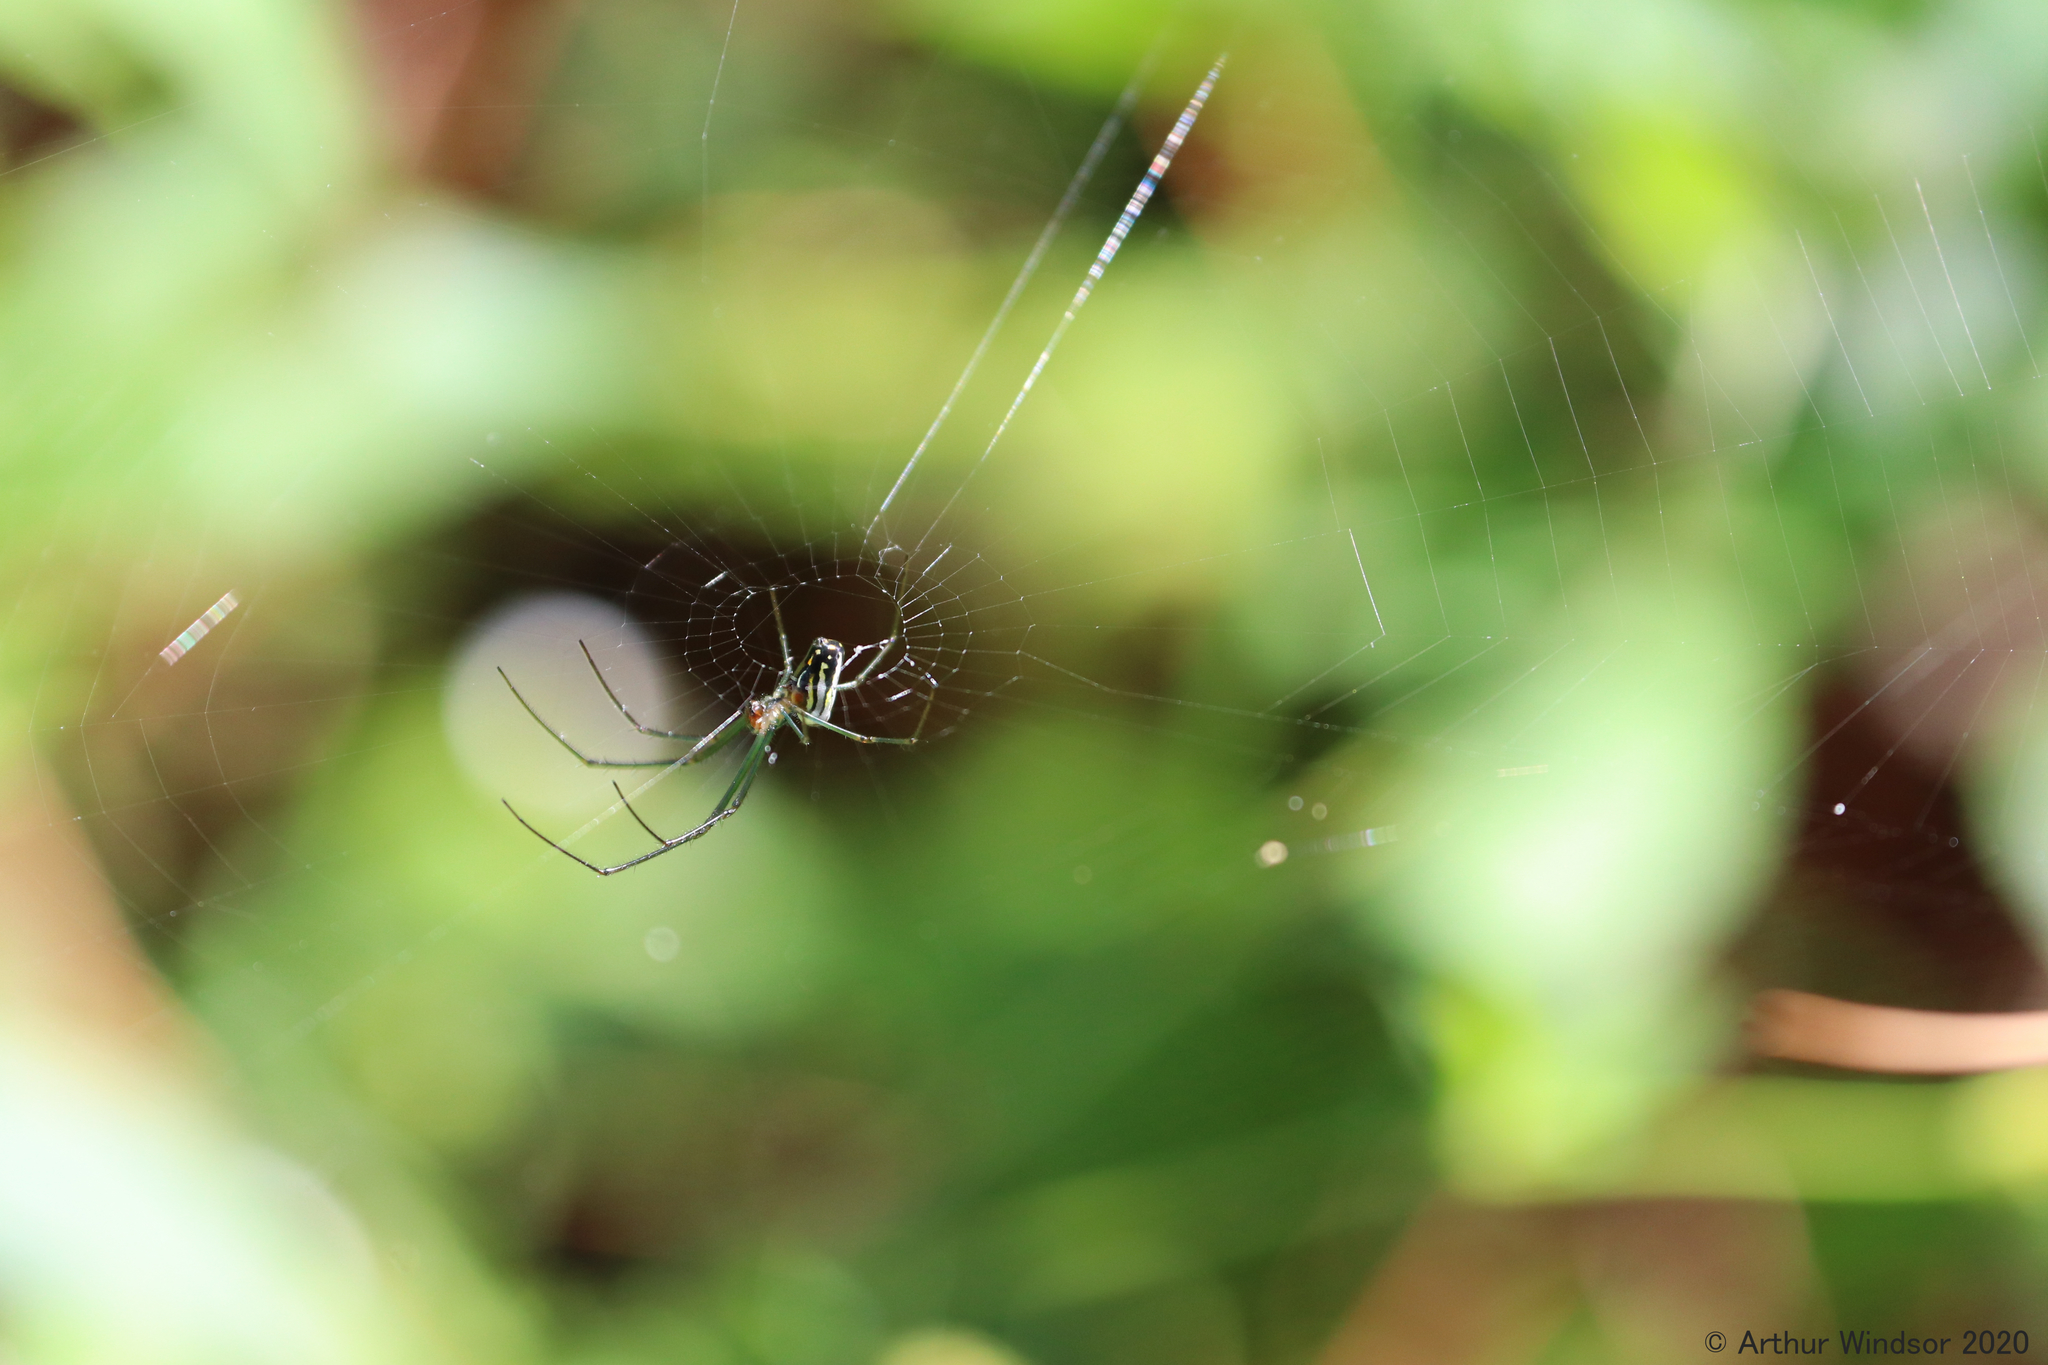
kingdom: Animalia
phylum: Arthropoda
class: Arachnida
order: Araneae
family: Tetragnathidae
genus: Leucauge
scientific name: Leucauge argyra
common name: Longjawed orb weavers
